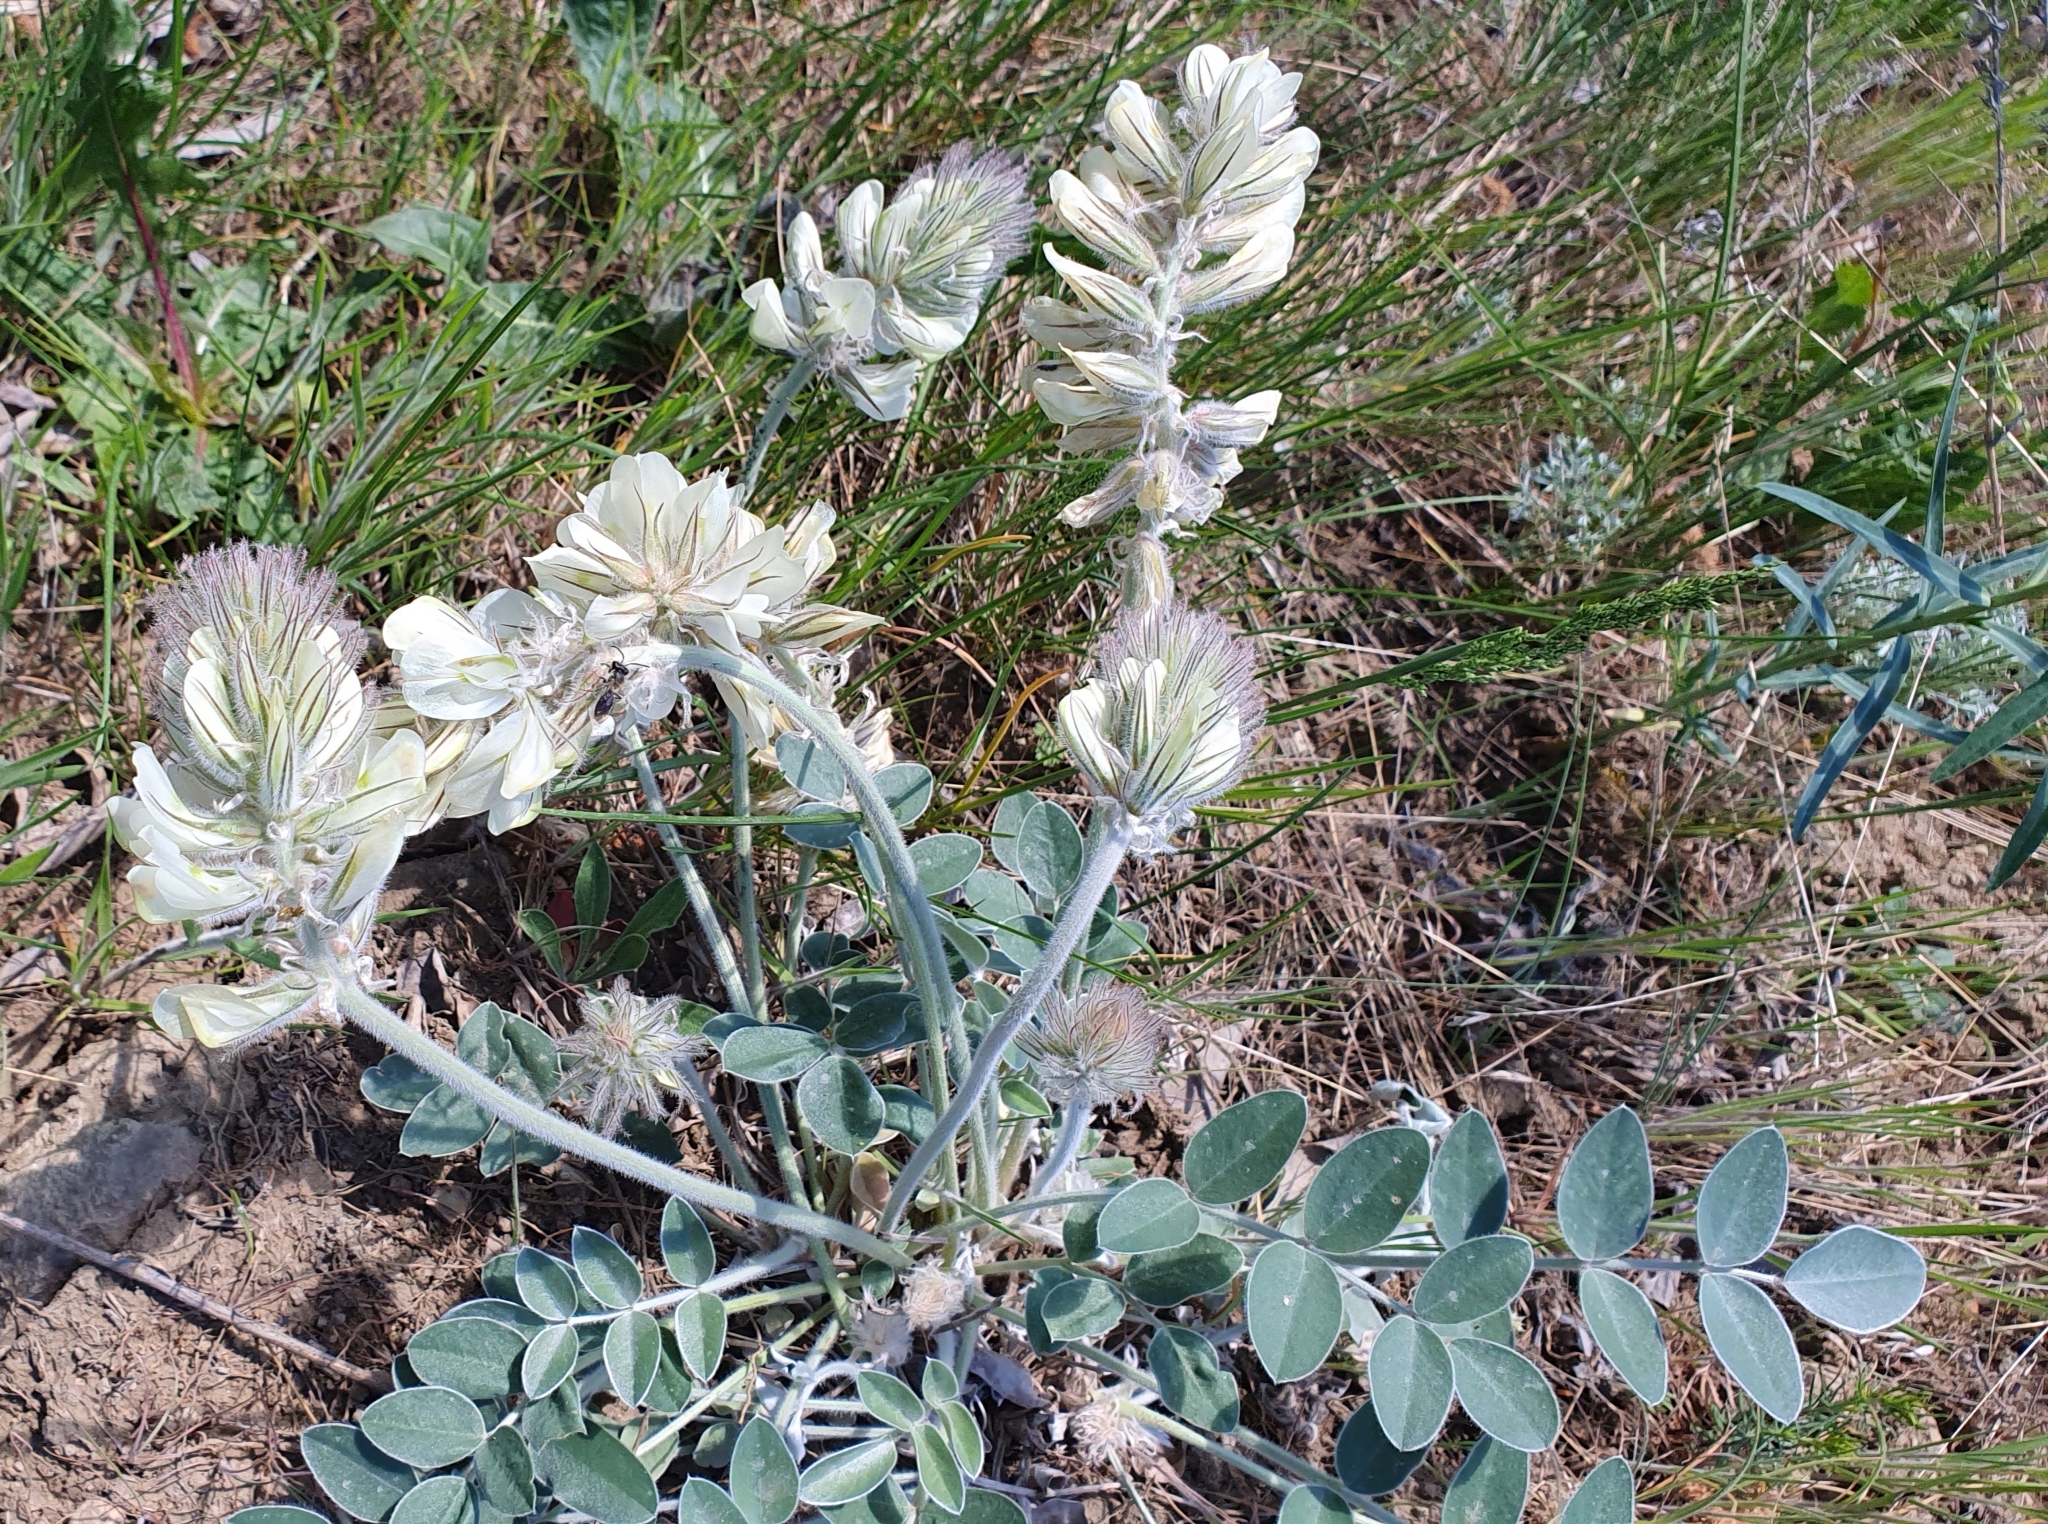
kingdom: Plantae
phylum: Tracheophyta
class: Magnoliopsida
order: Fabales
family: Fabaceae
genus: Hedysarum
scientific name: Hedysarum grandiflorum
